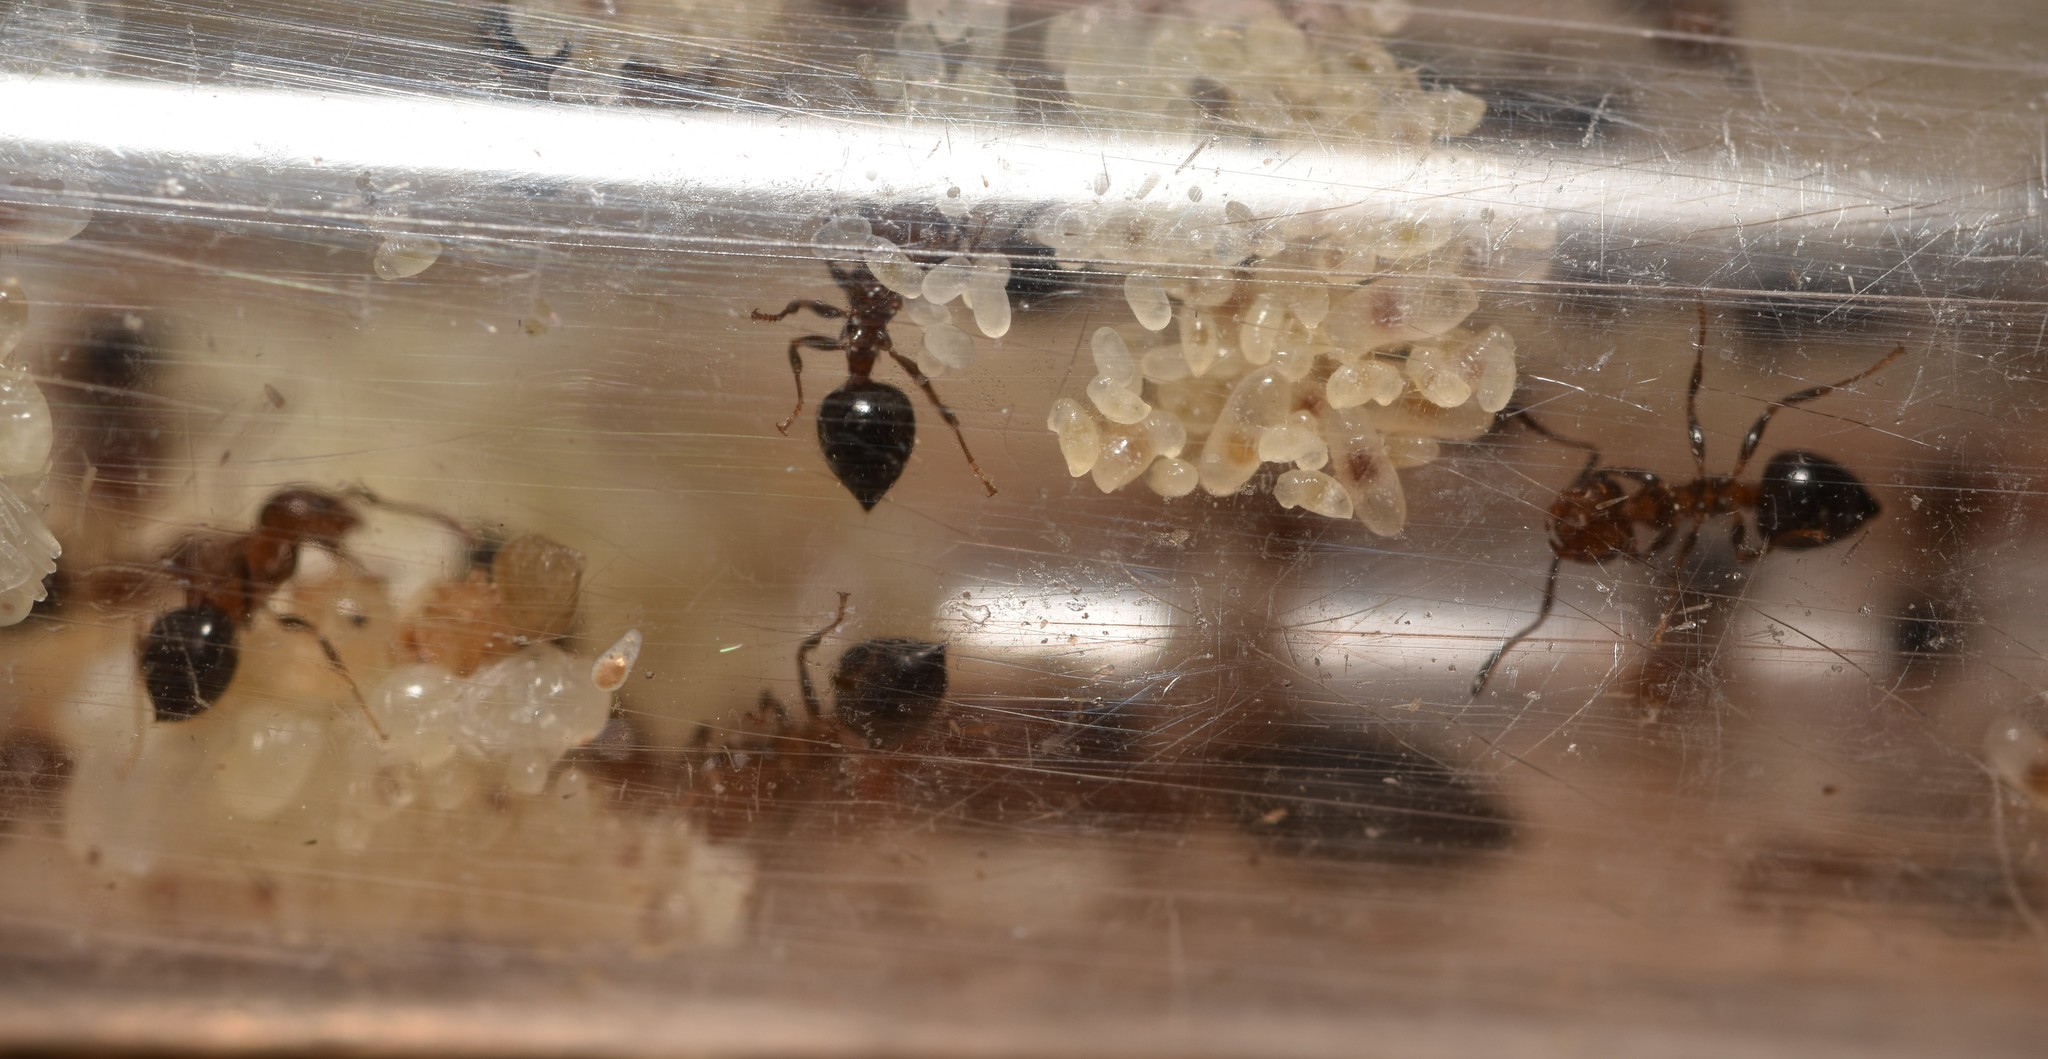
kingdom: Animalia
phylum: Arthropoda
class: Insecta
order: Hymenoptera
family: Formicidae
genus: Crematogaster
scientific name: Crematogaster laeviuscula
